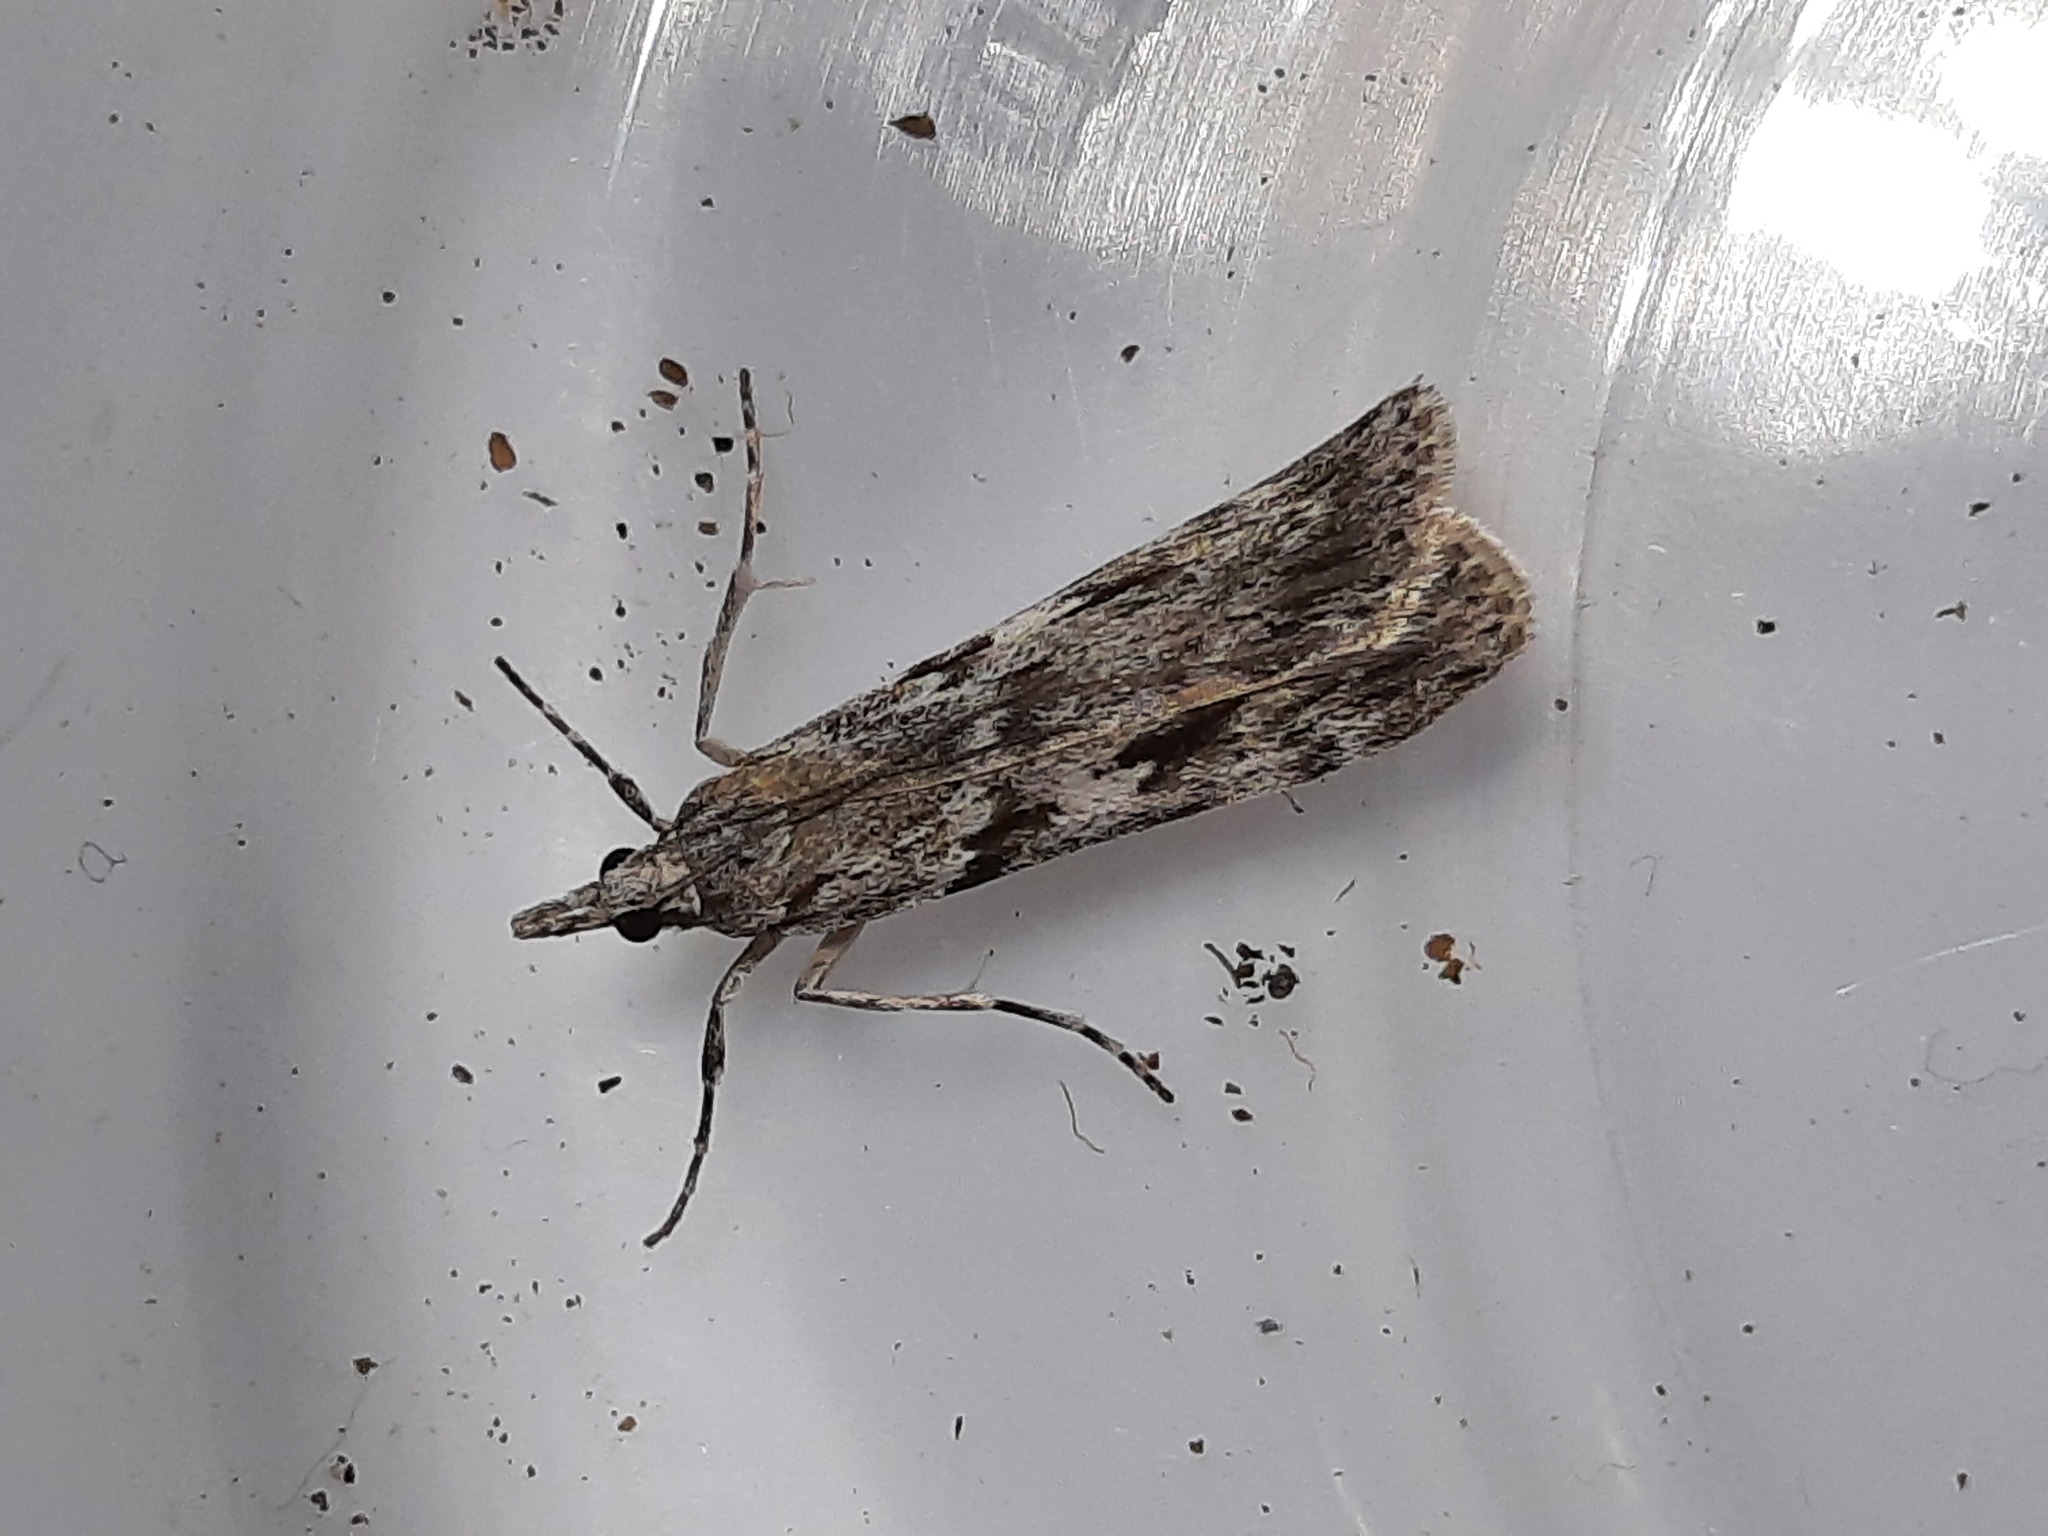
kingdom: Animalia
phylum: Arthropoda
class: Insecta
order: Lepidoptera
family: Crambidae
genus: Scoparia
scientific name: Scoparia halopis
